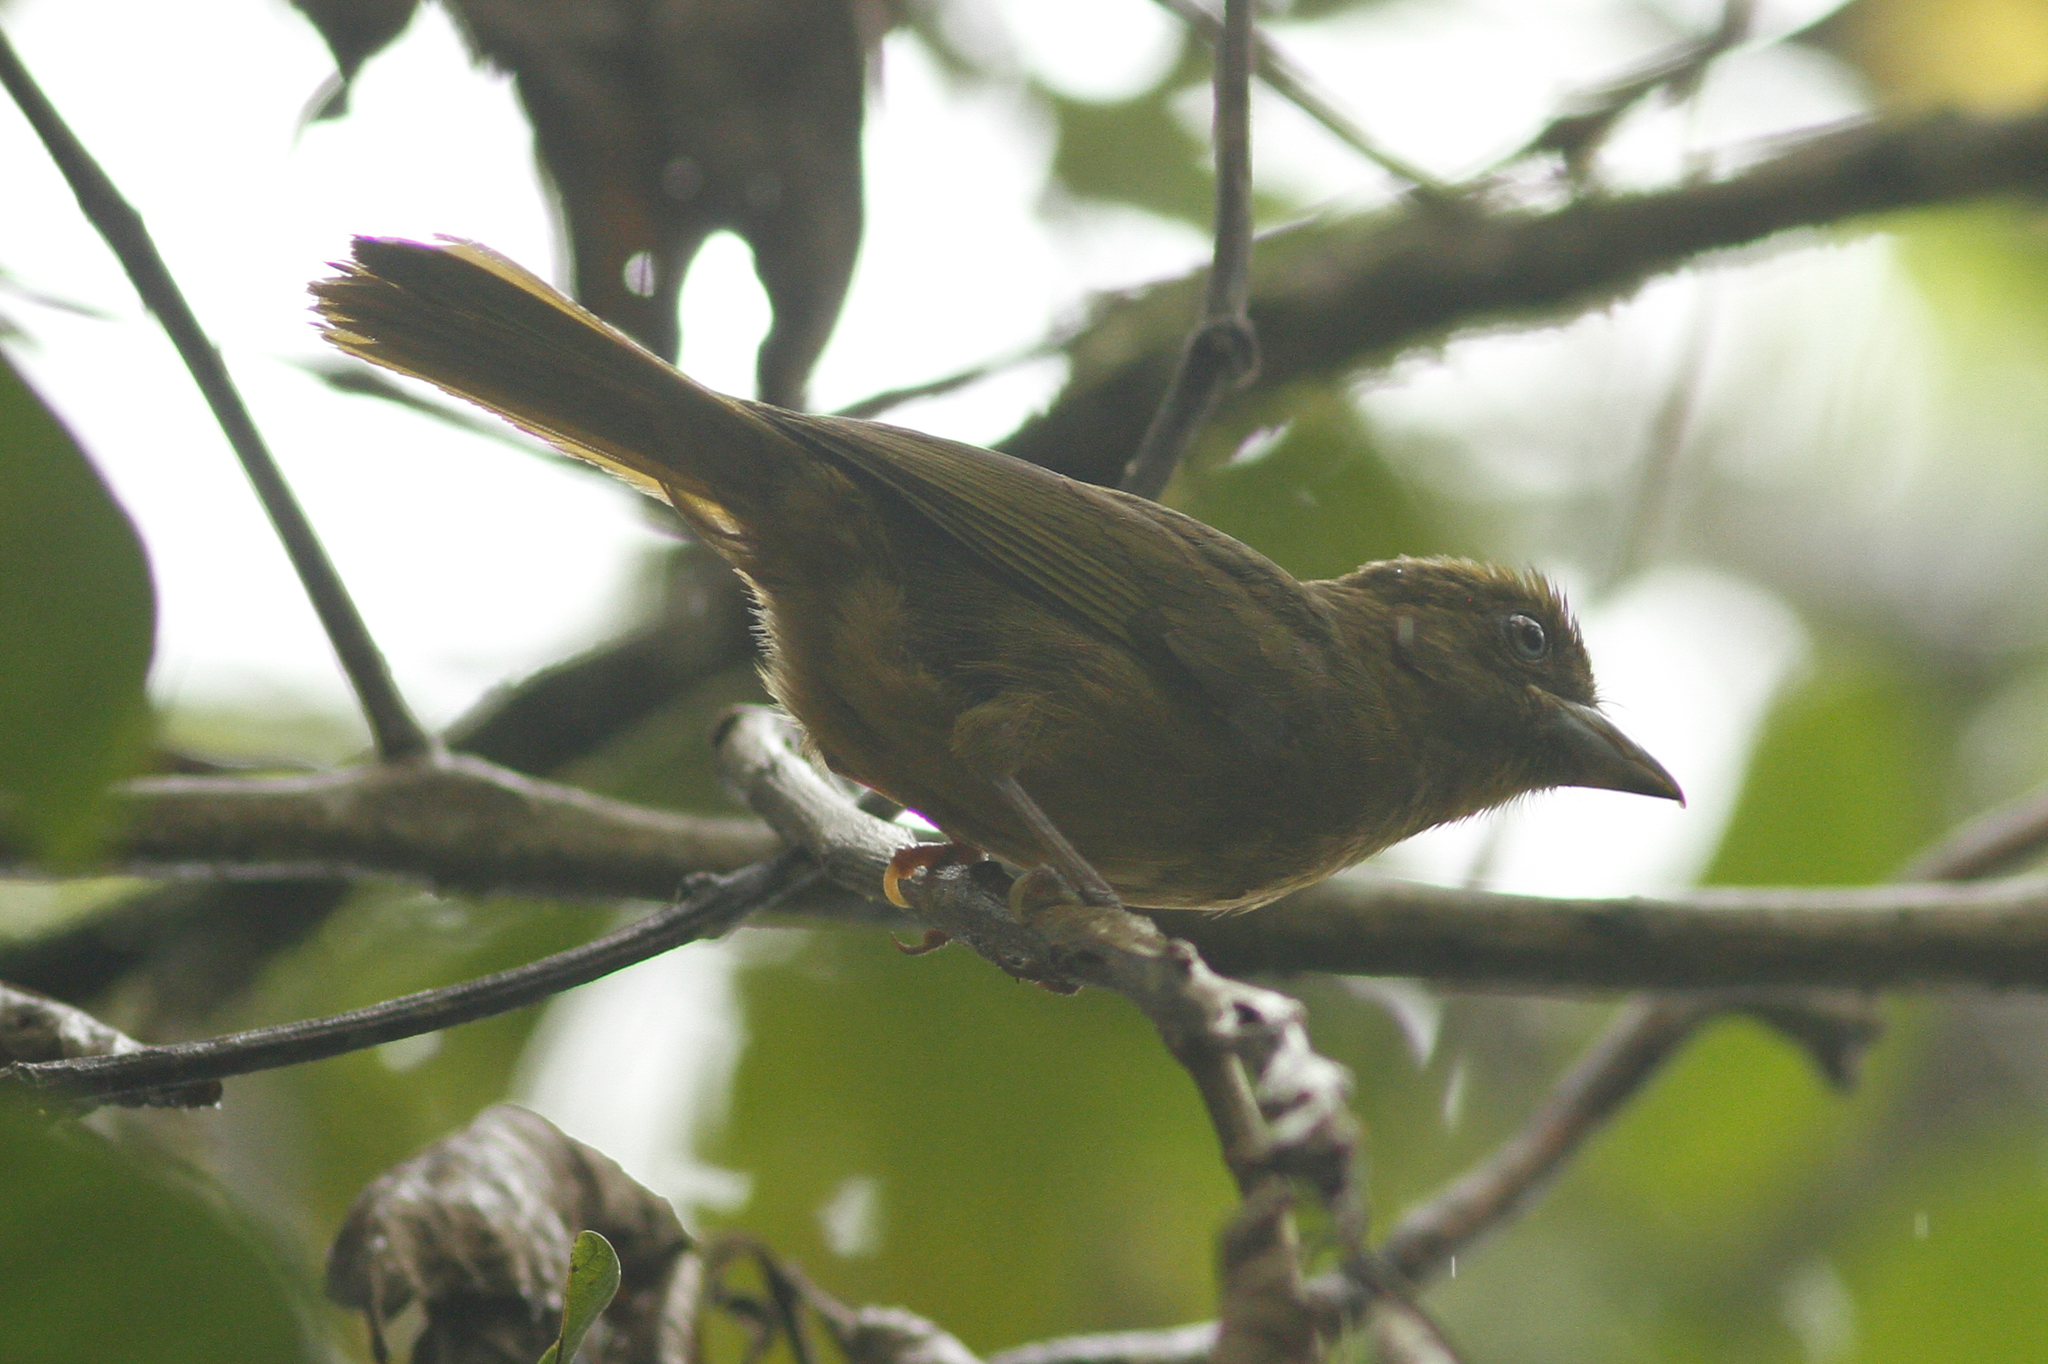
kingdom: Animalia
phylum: Chordata
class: Aves
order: Passeriformes
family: Cardinalidae
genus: Chlorothraupis
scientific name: Chlorothraupis stolzmanni
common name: Ochre-breasted tanager
